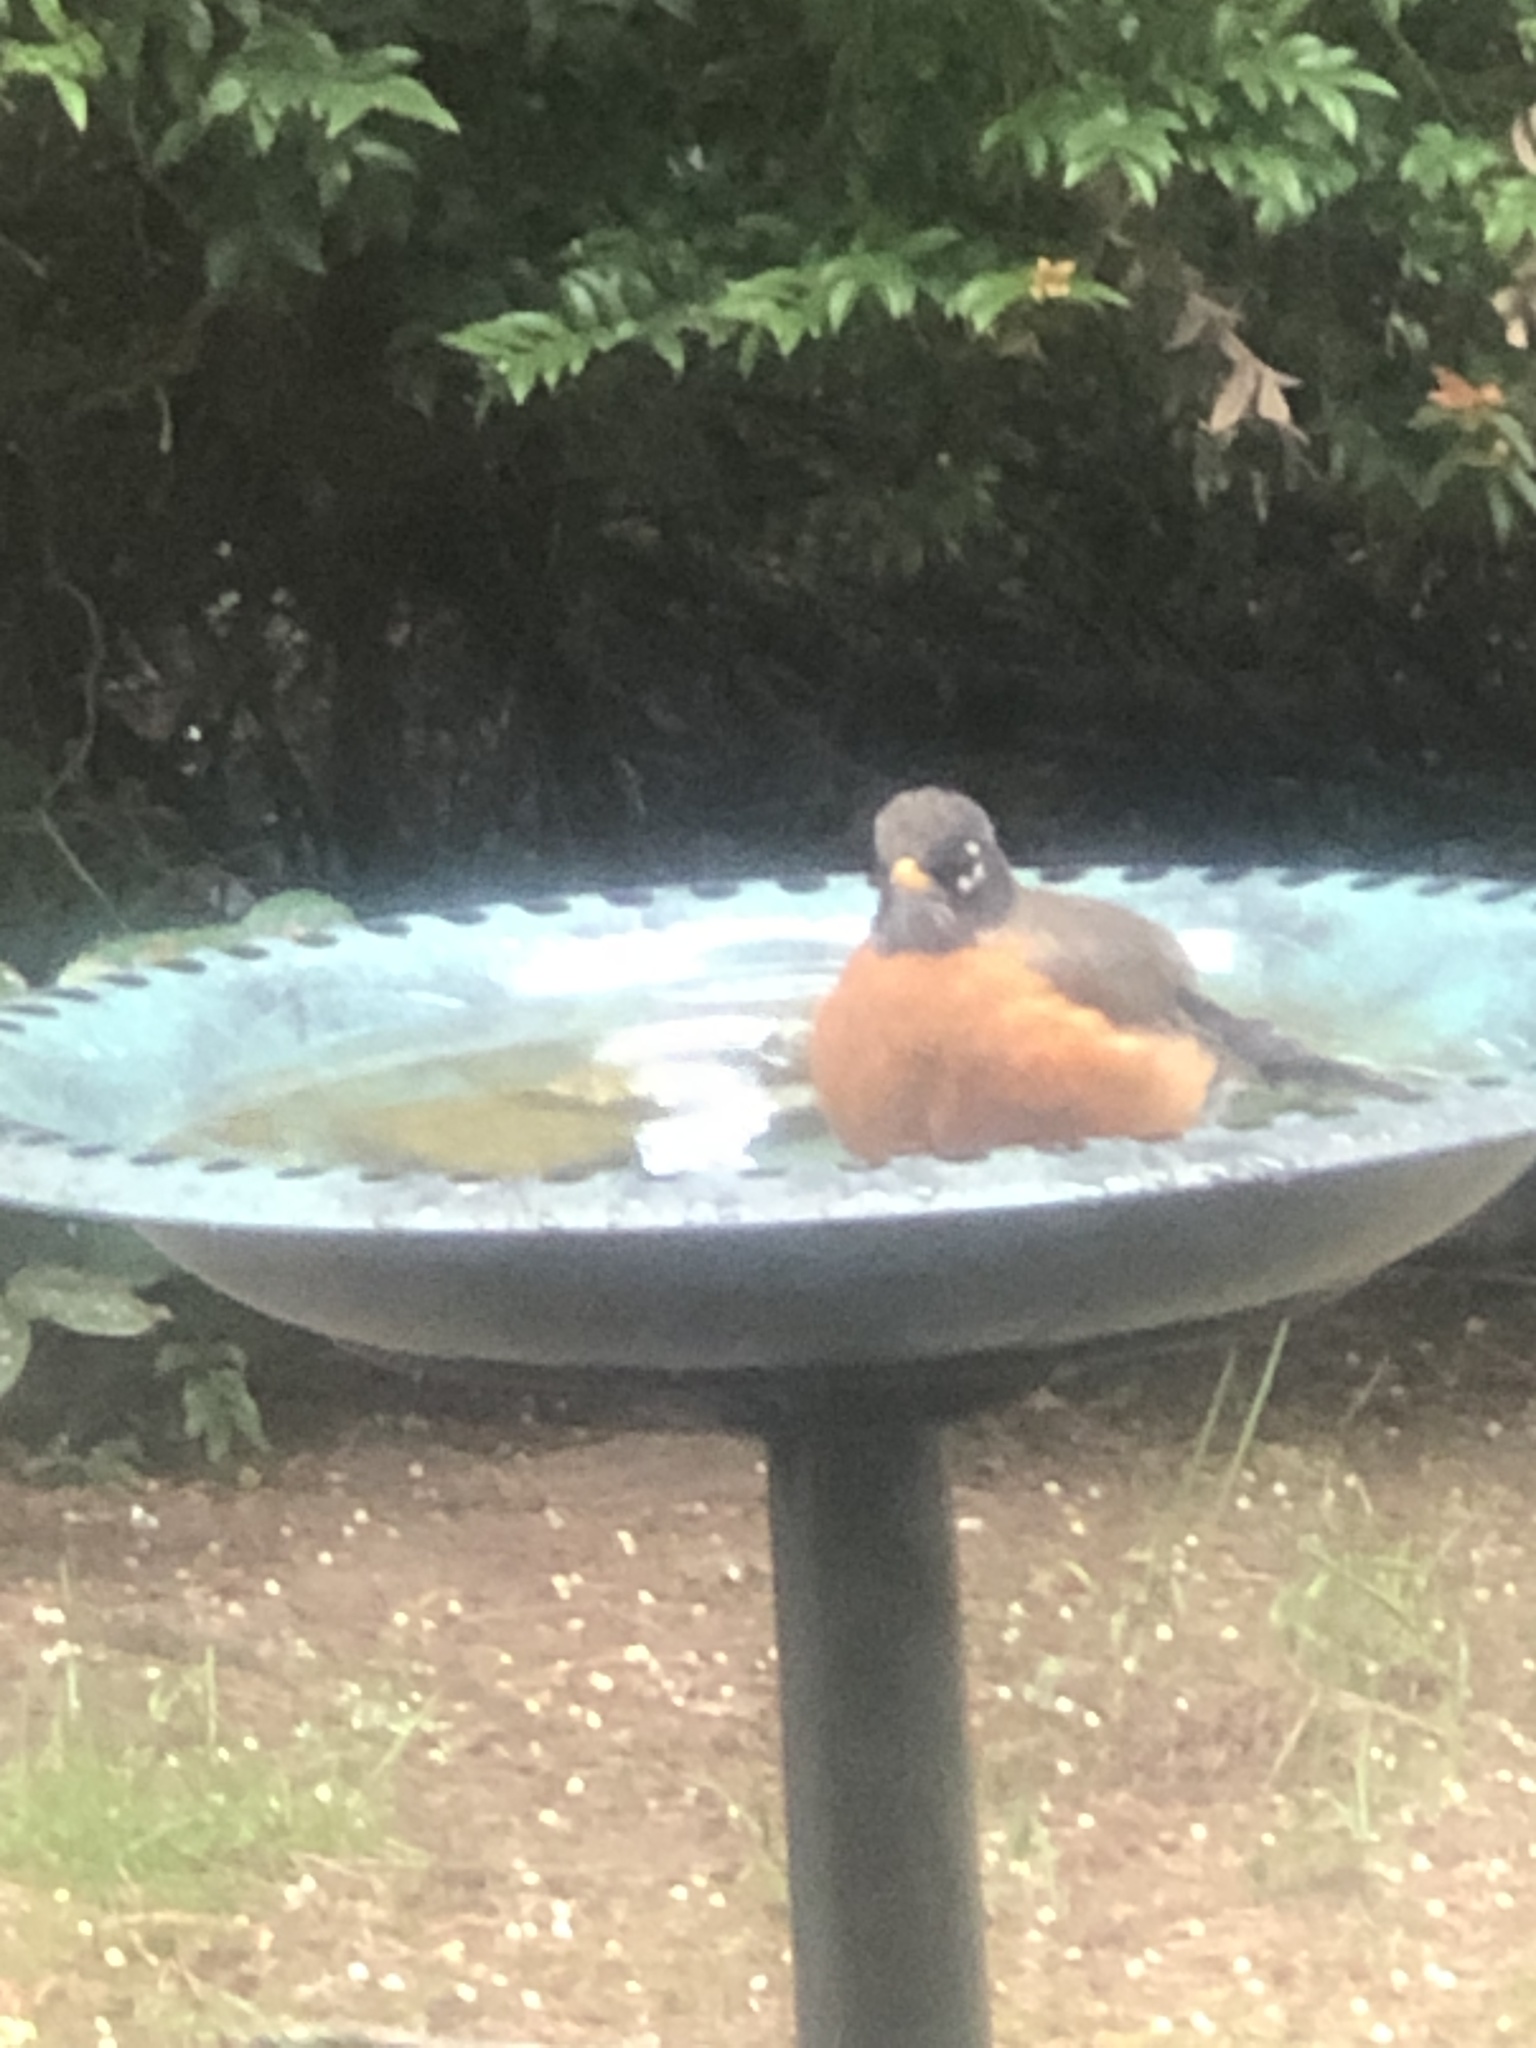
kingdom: Animalia
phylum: Chordata
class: Aves
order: Passeriformes
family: Turdidae
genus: Turdus
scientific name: Turdus migratorius
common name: American robin
